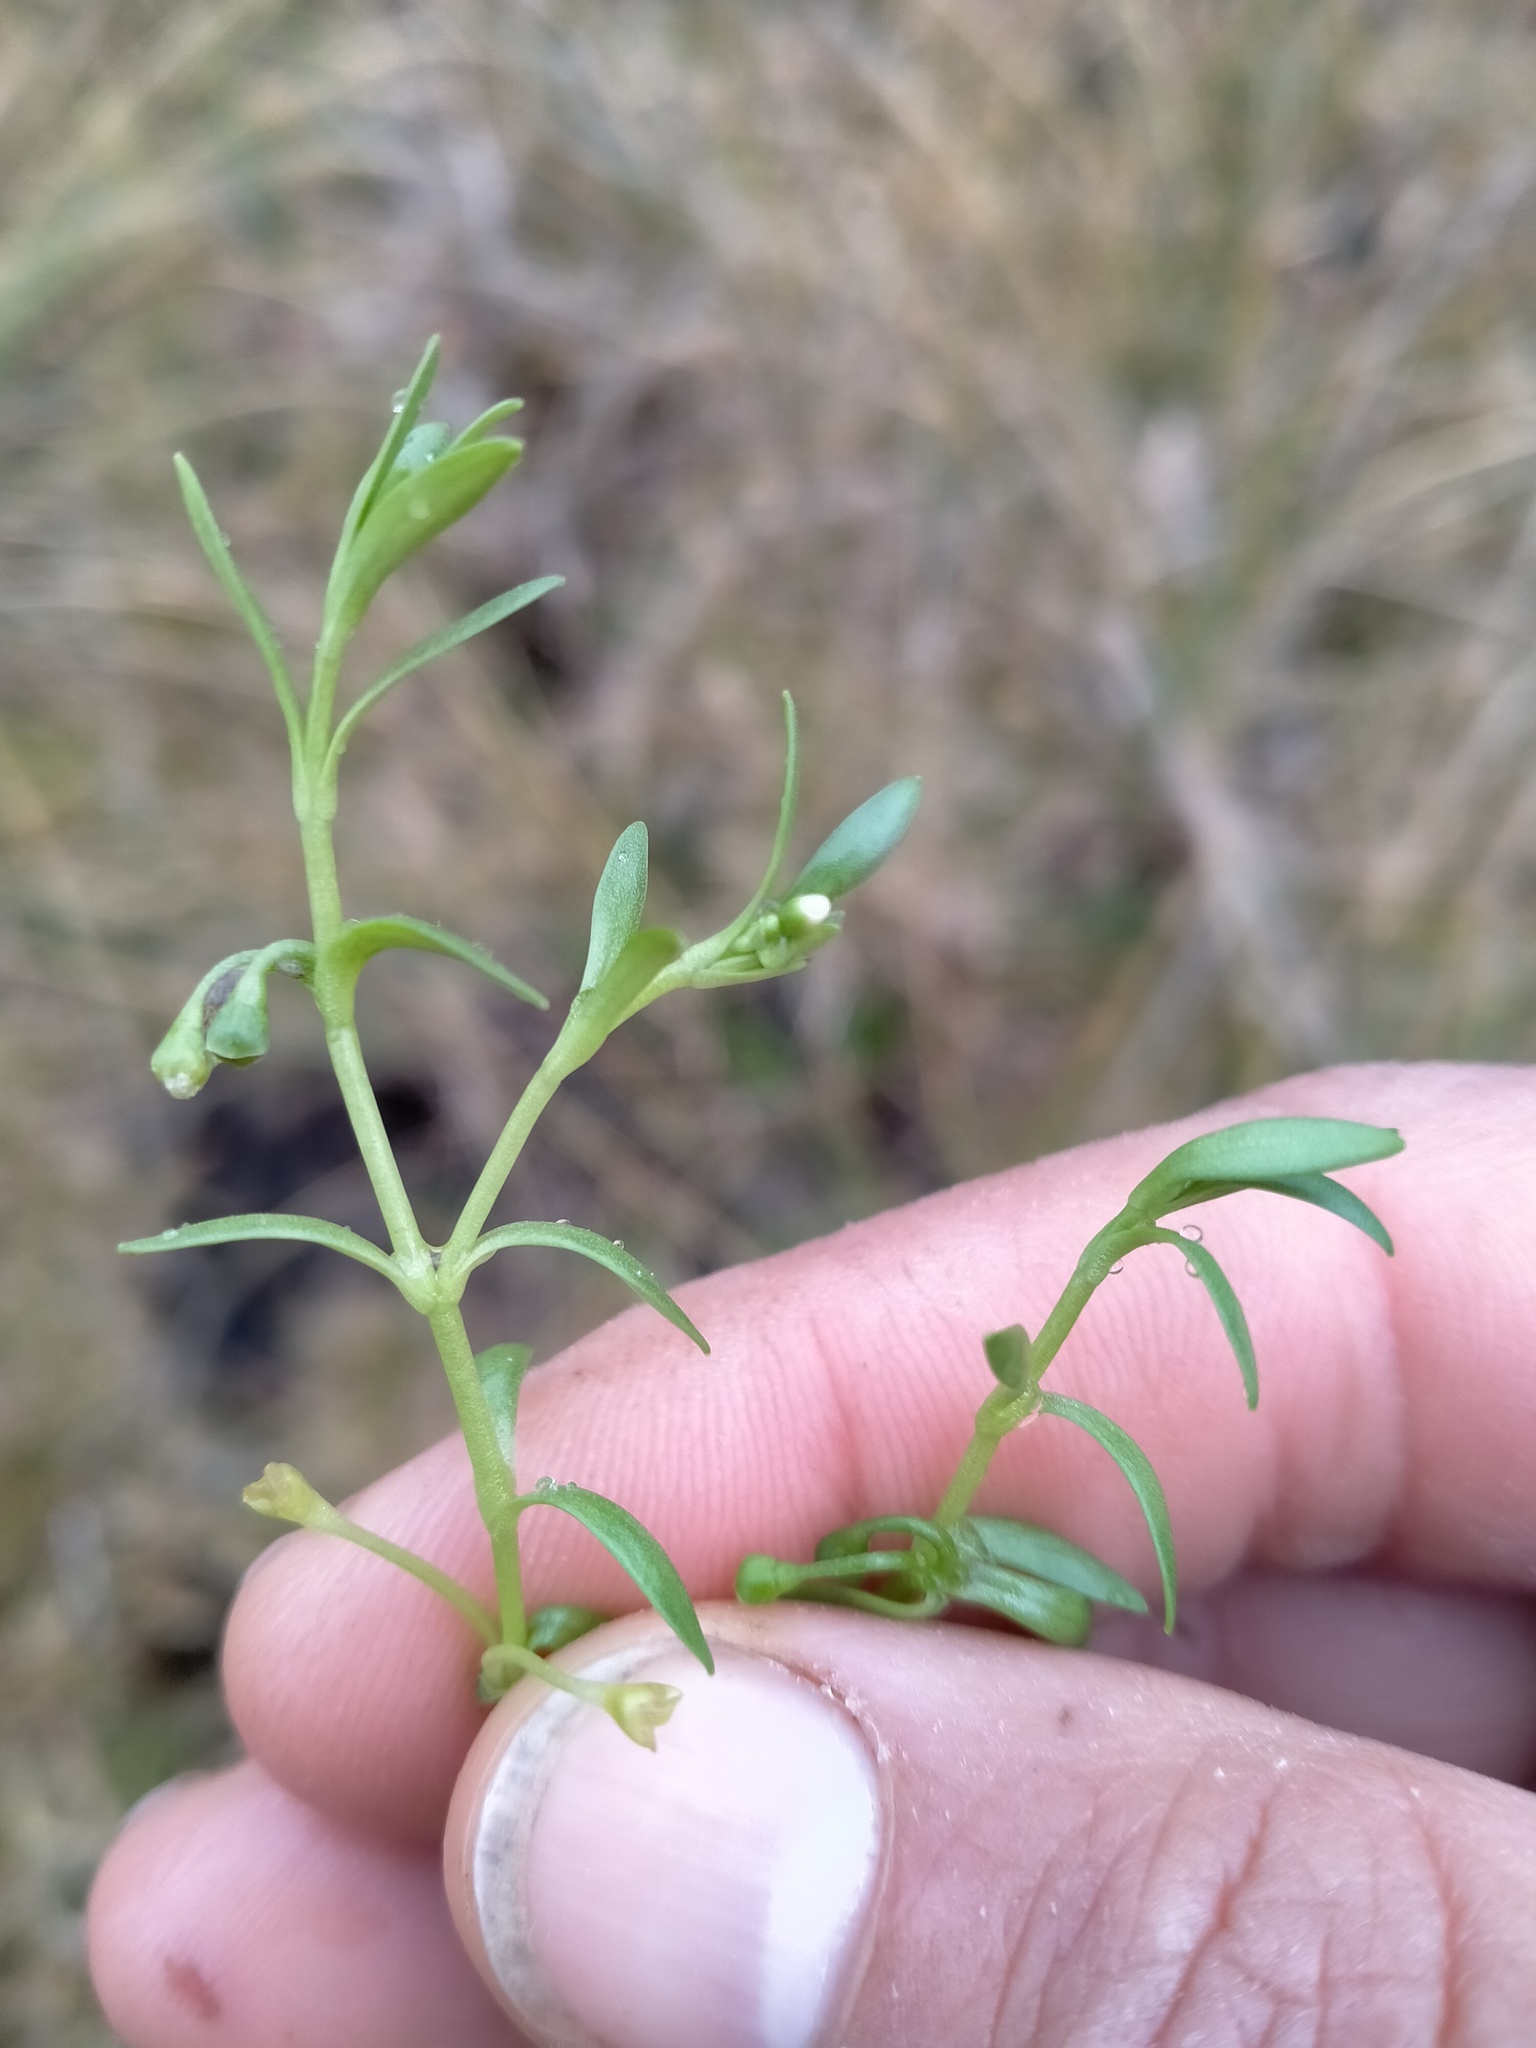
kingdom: Plantae
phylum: Tracheophyta
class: Magnoliopsida
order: Caryophyllales
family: Montiaceae
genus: Montia
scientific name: Montia fontana
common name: Blinks
